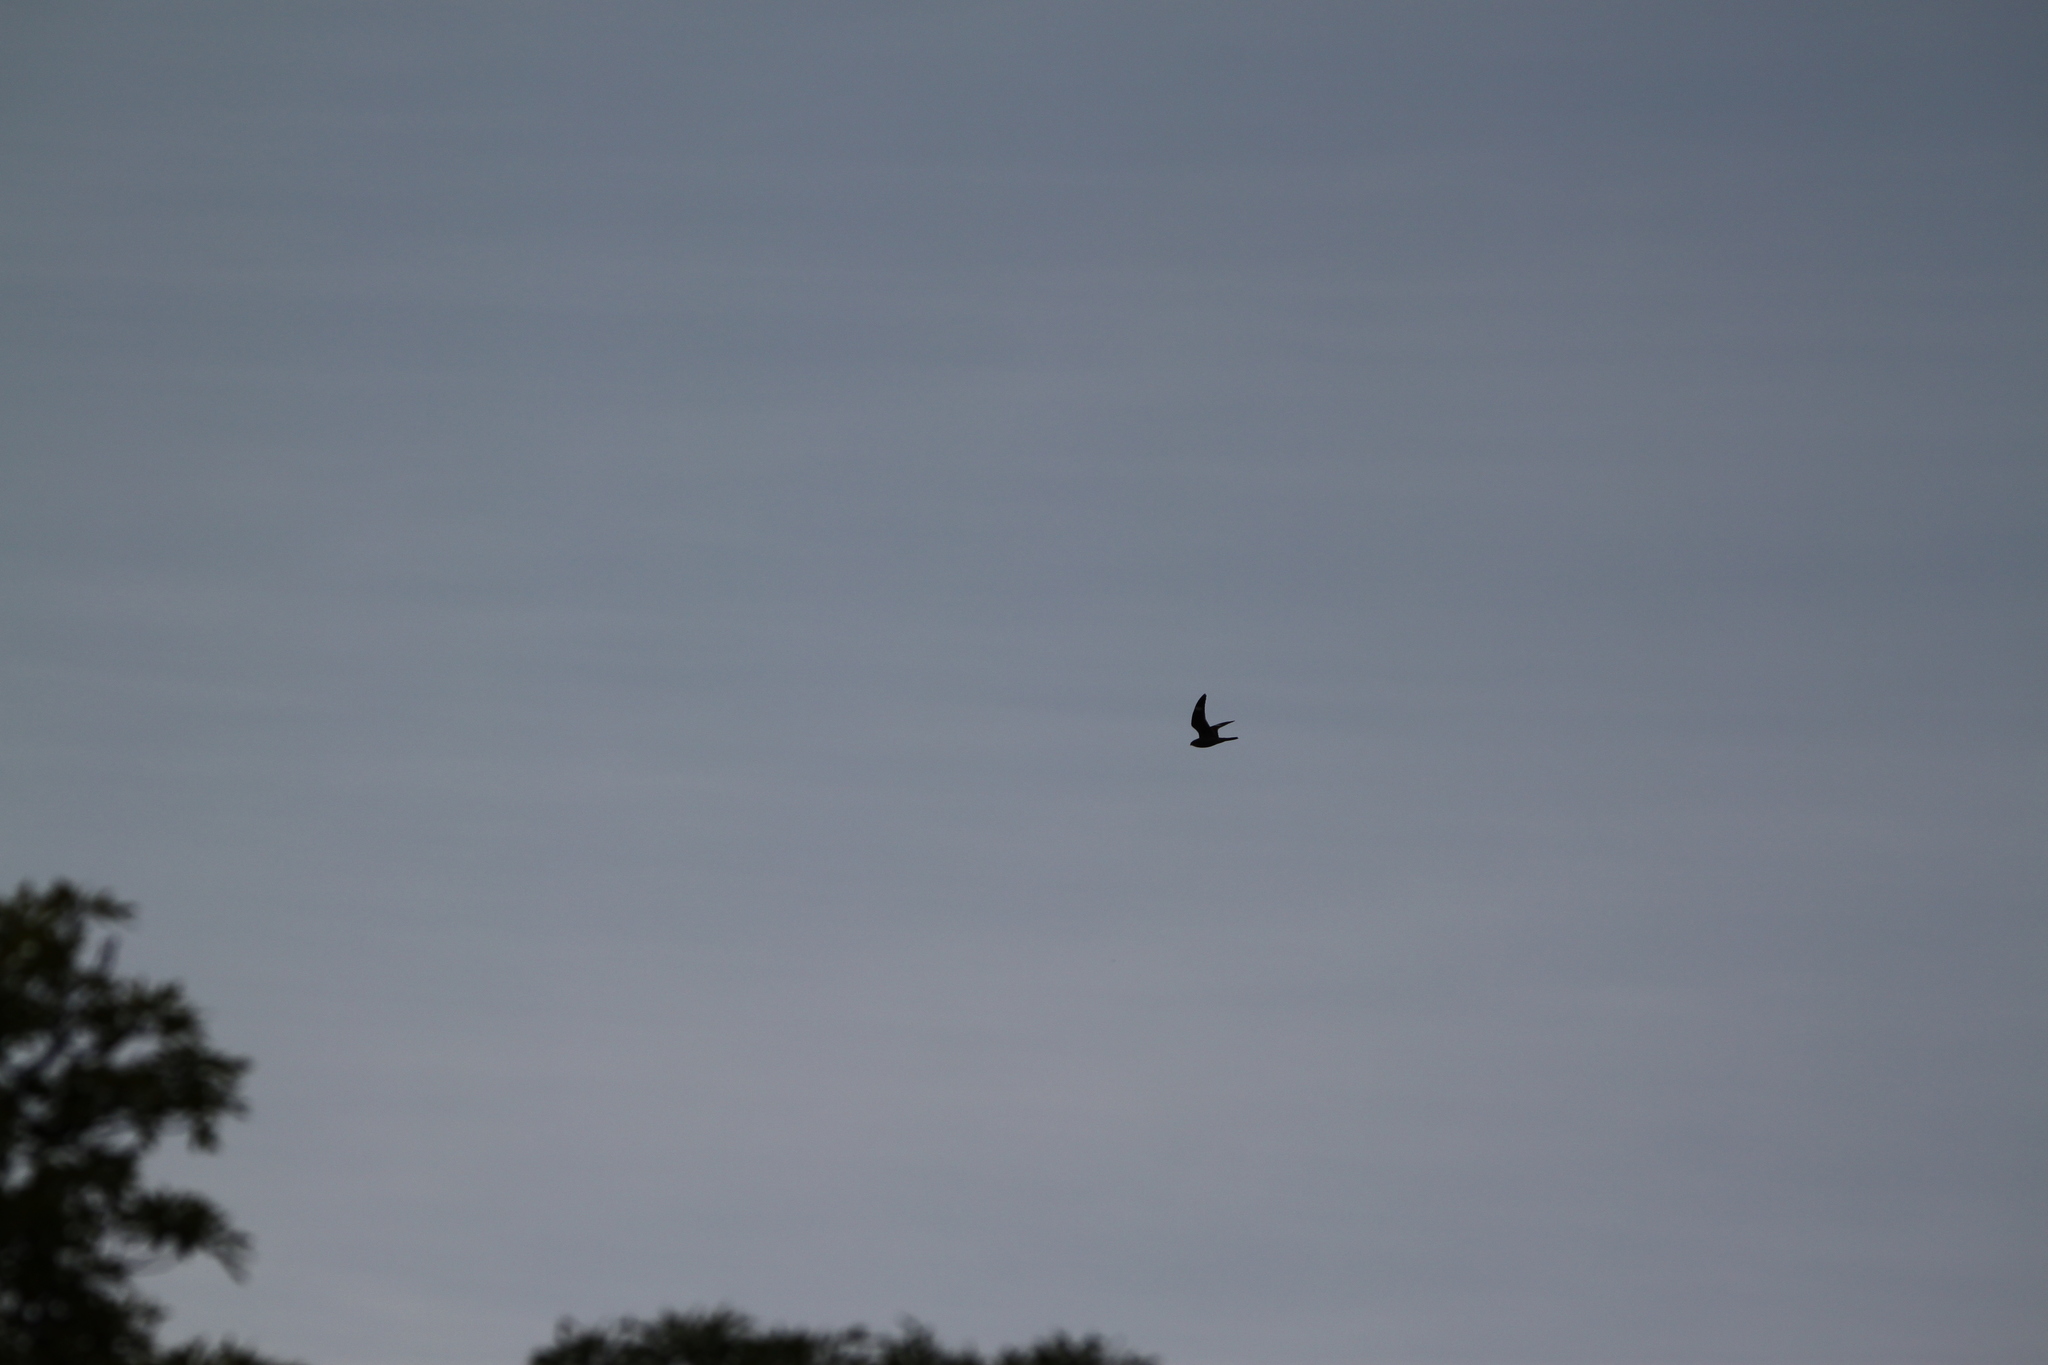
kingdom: Animalia
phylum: Chordata
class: Aves
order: Caprimulgiformes
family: Caprimulgidae
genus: Chordeiles
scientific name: Chordeiles minor
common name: Common nighthawk
